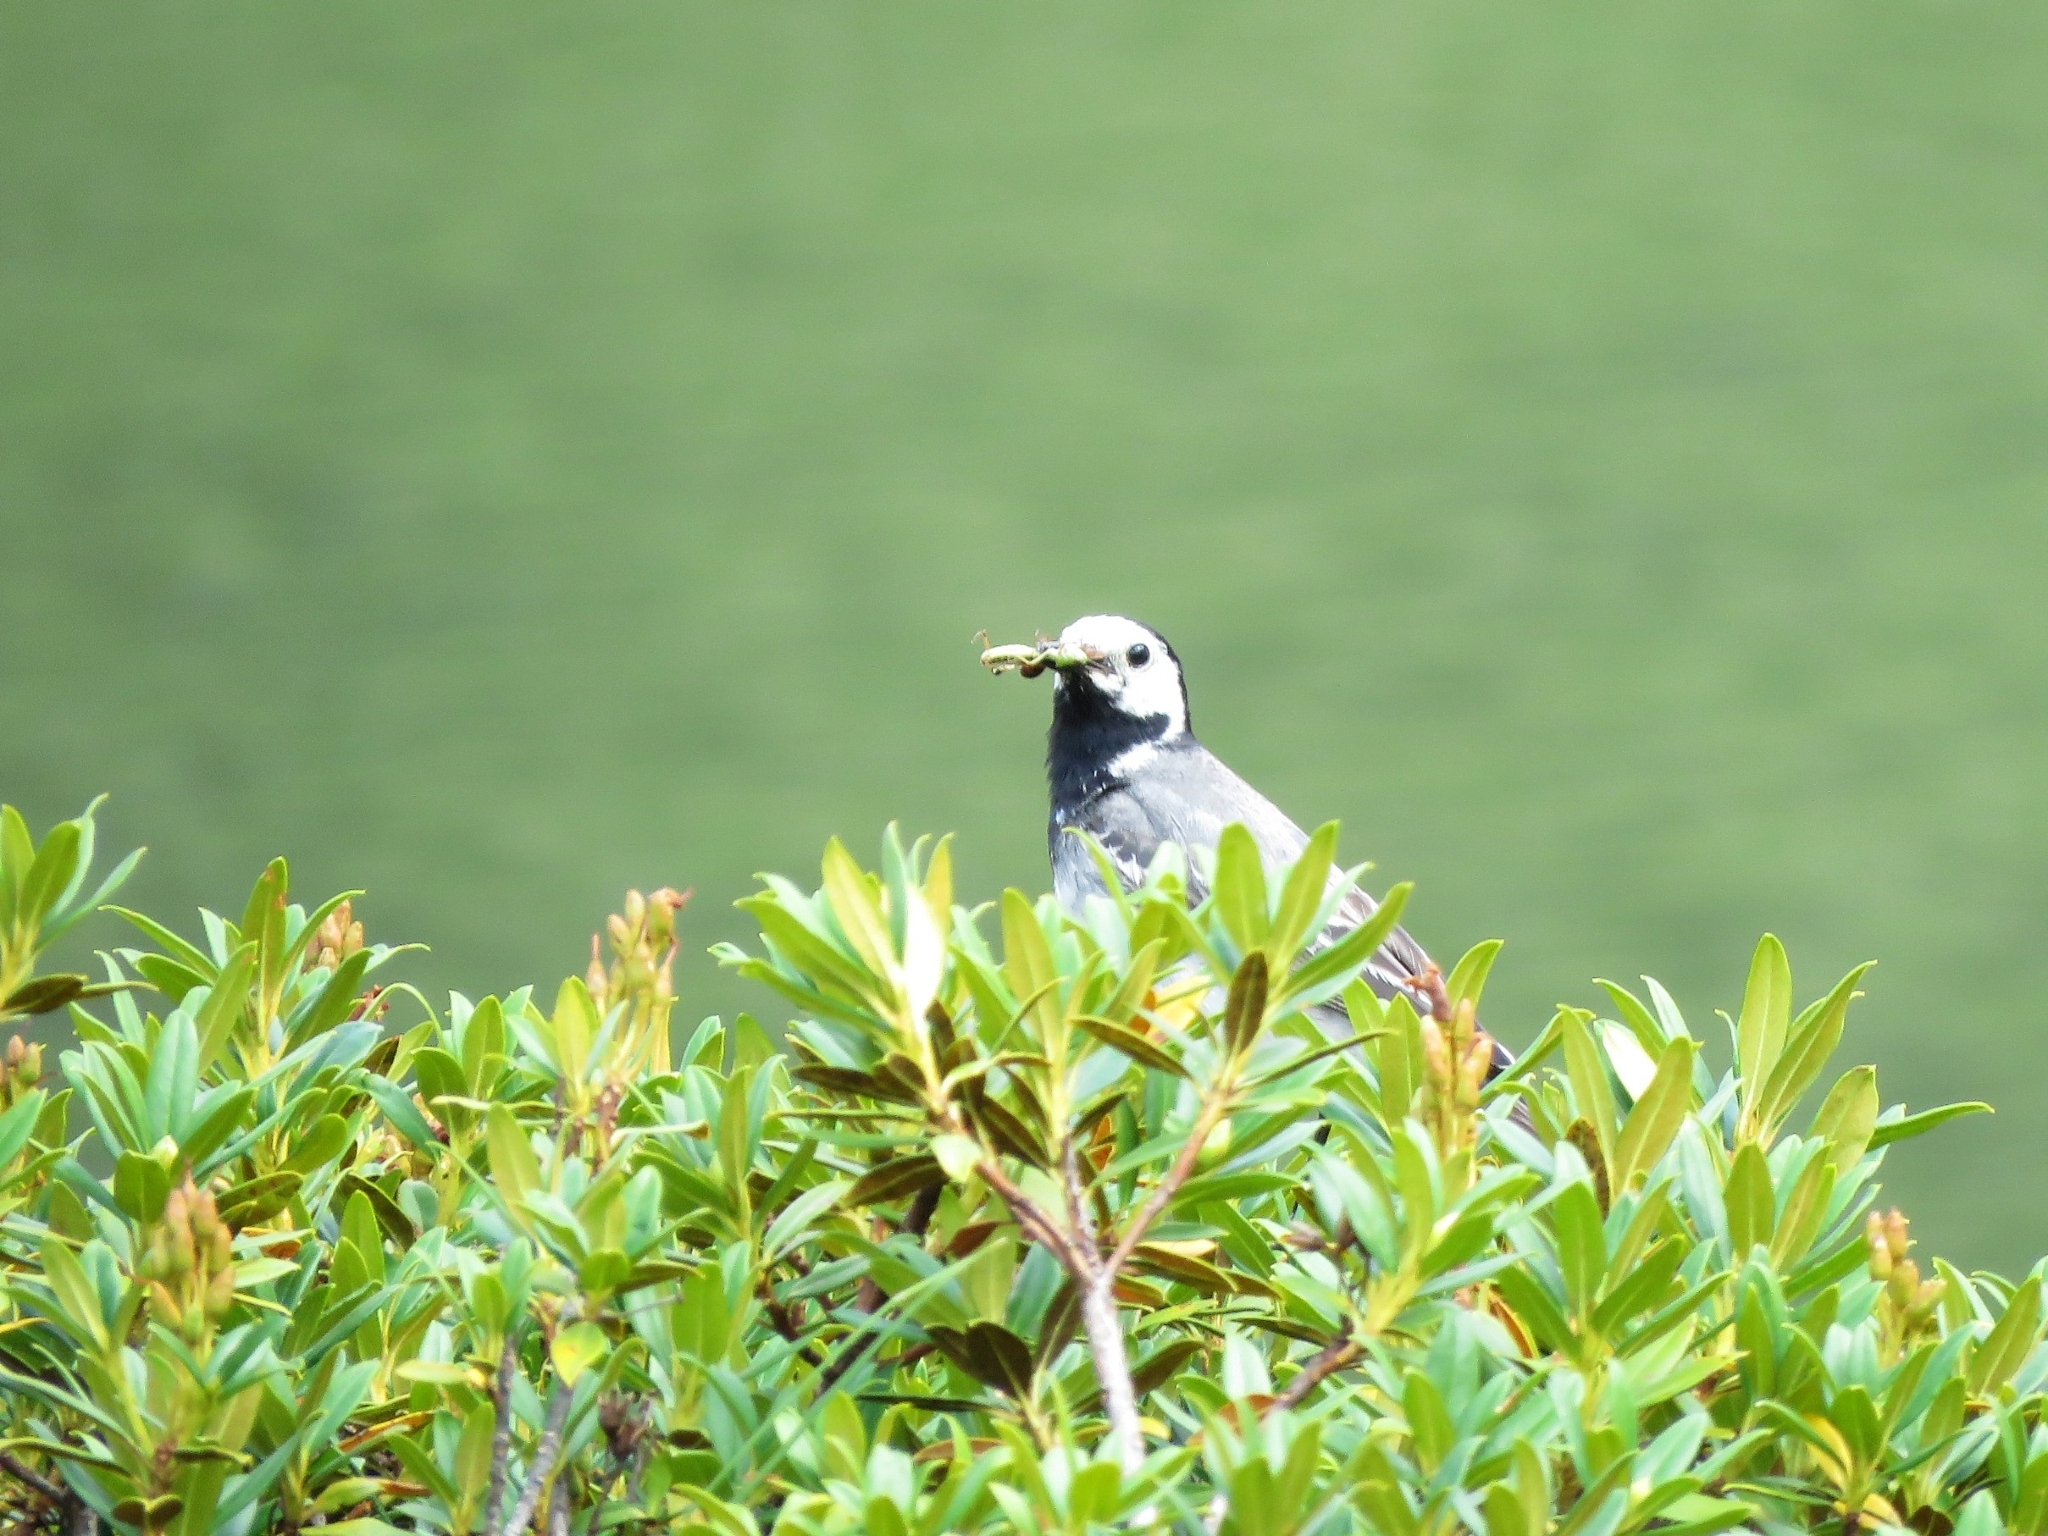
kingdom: Animalia
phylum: Chordata
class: Aves
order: Passeriformes
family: Motacillidae
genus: Motacilla
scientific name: Motacilla alba
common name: White wagtail
